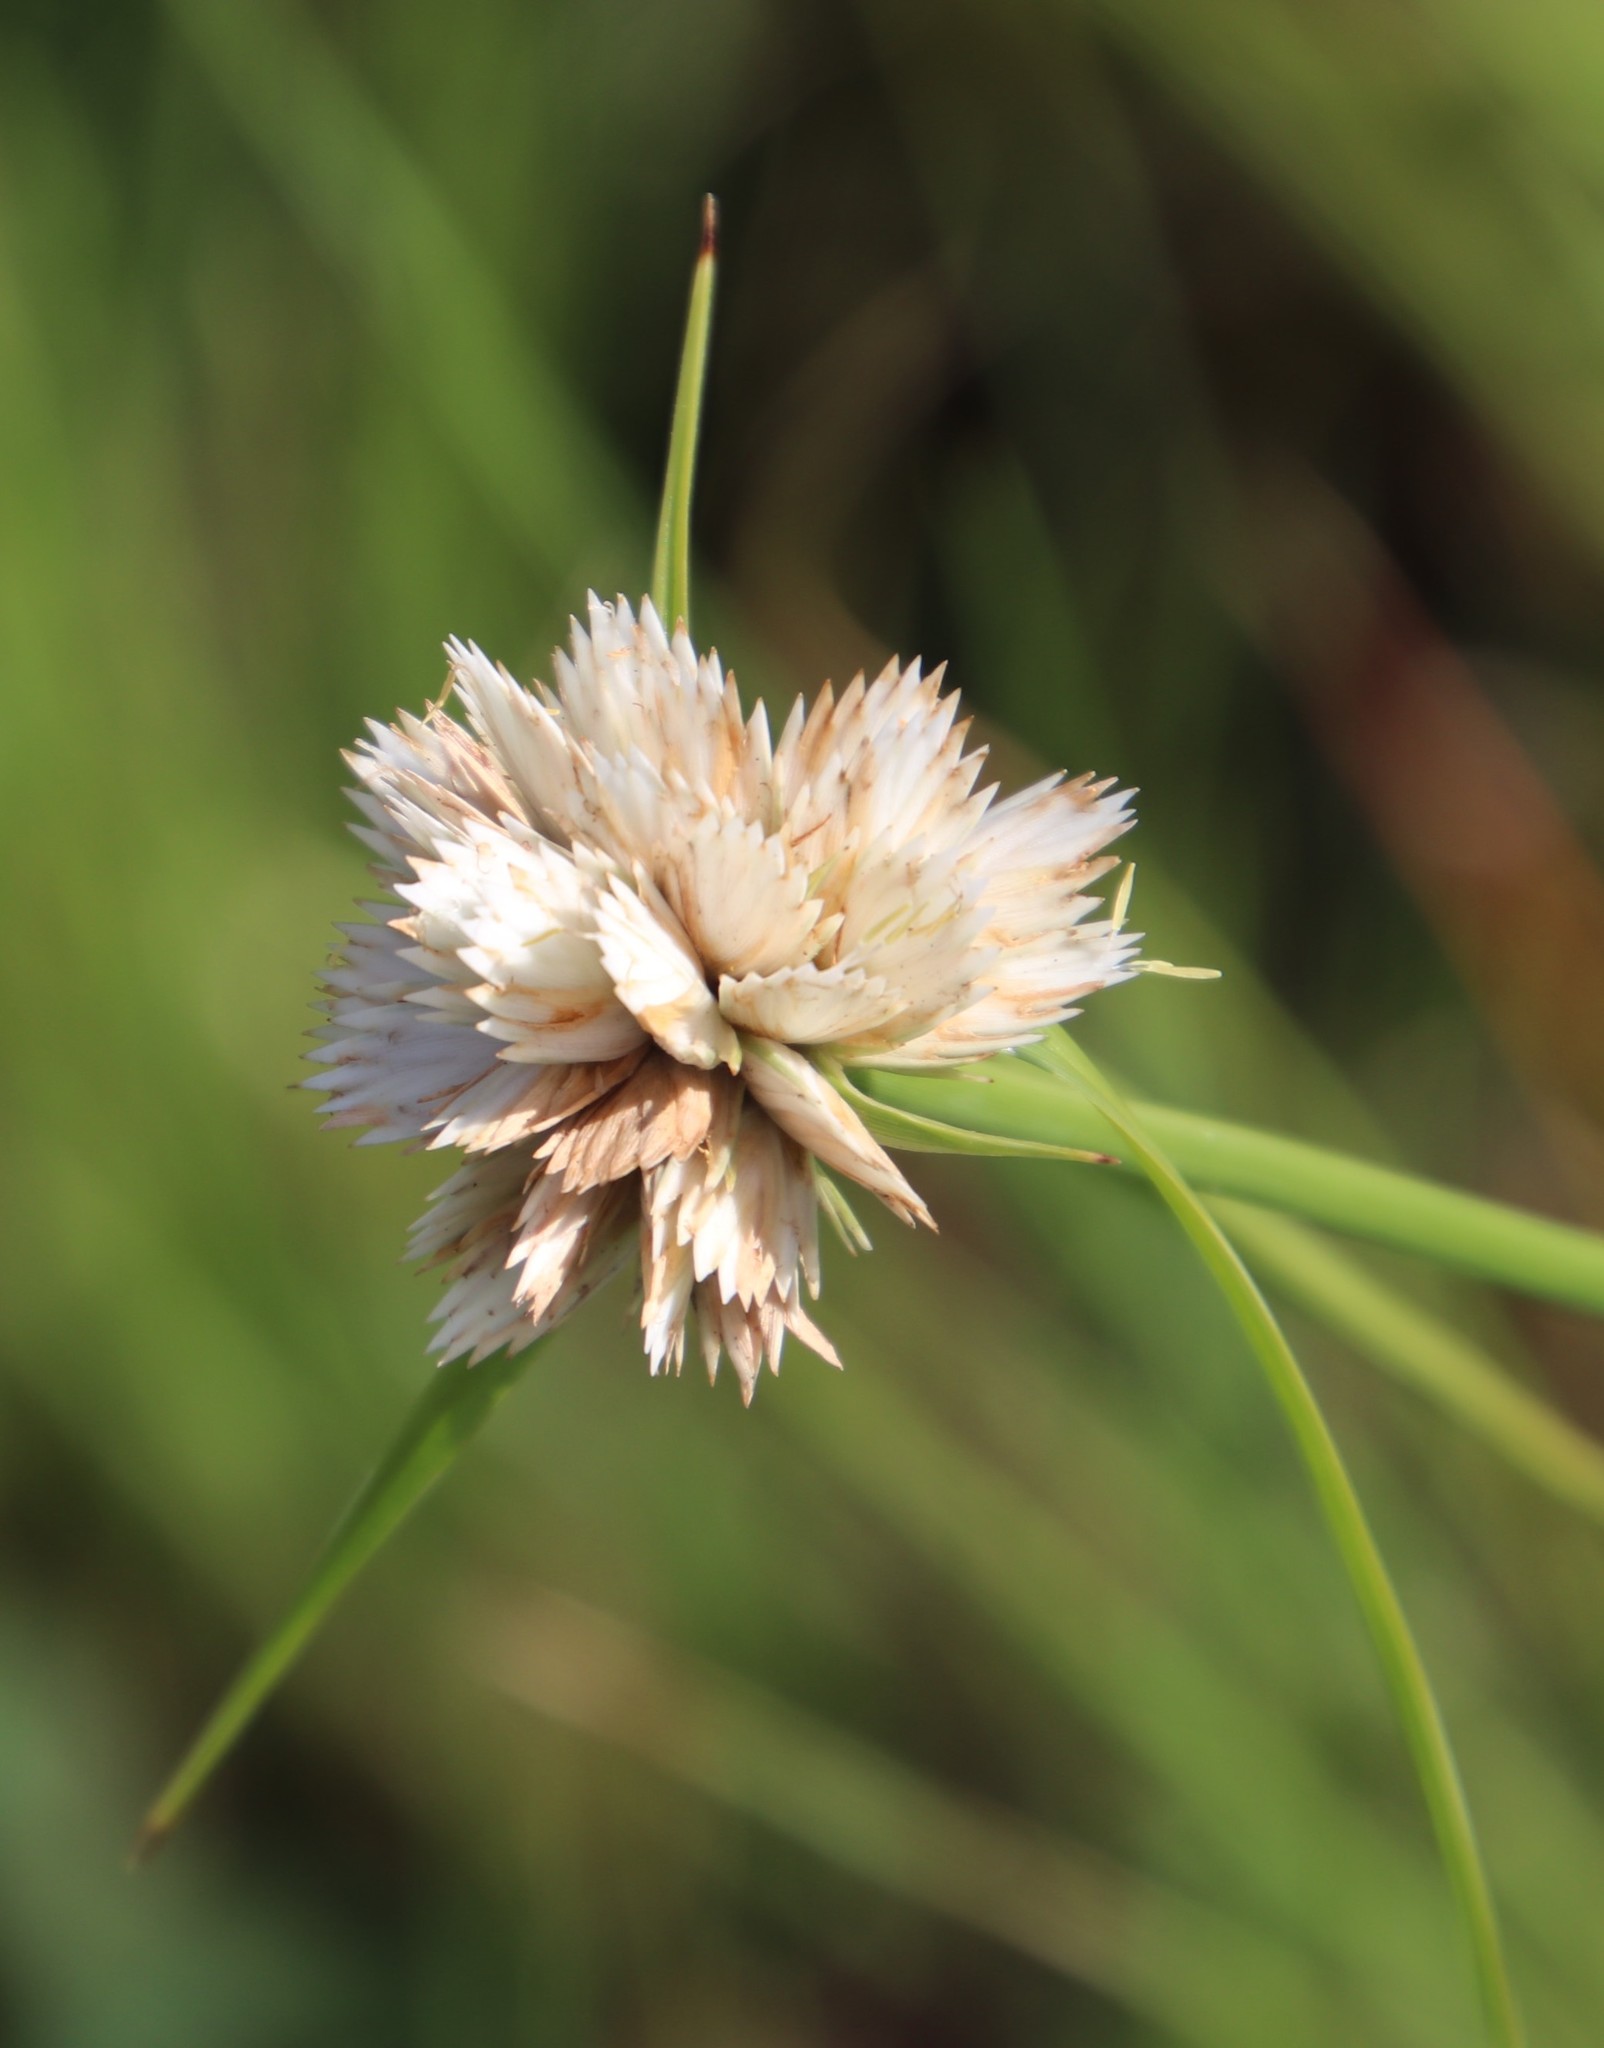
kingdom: Plantae
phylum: Tracheophyta
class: Liliopsida
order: Poales
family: Cyperaceae
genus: Cyperus
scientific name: Cyperus niveus
